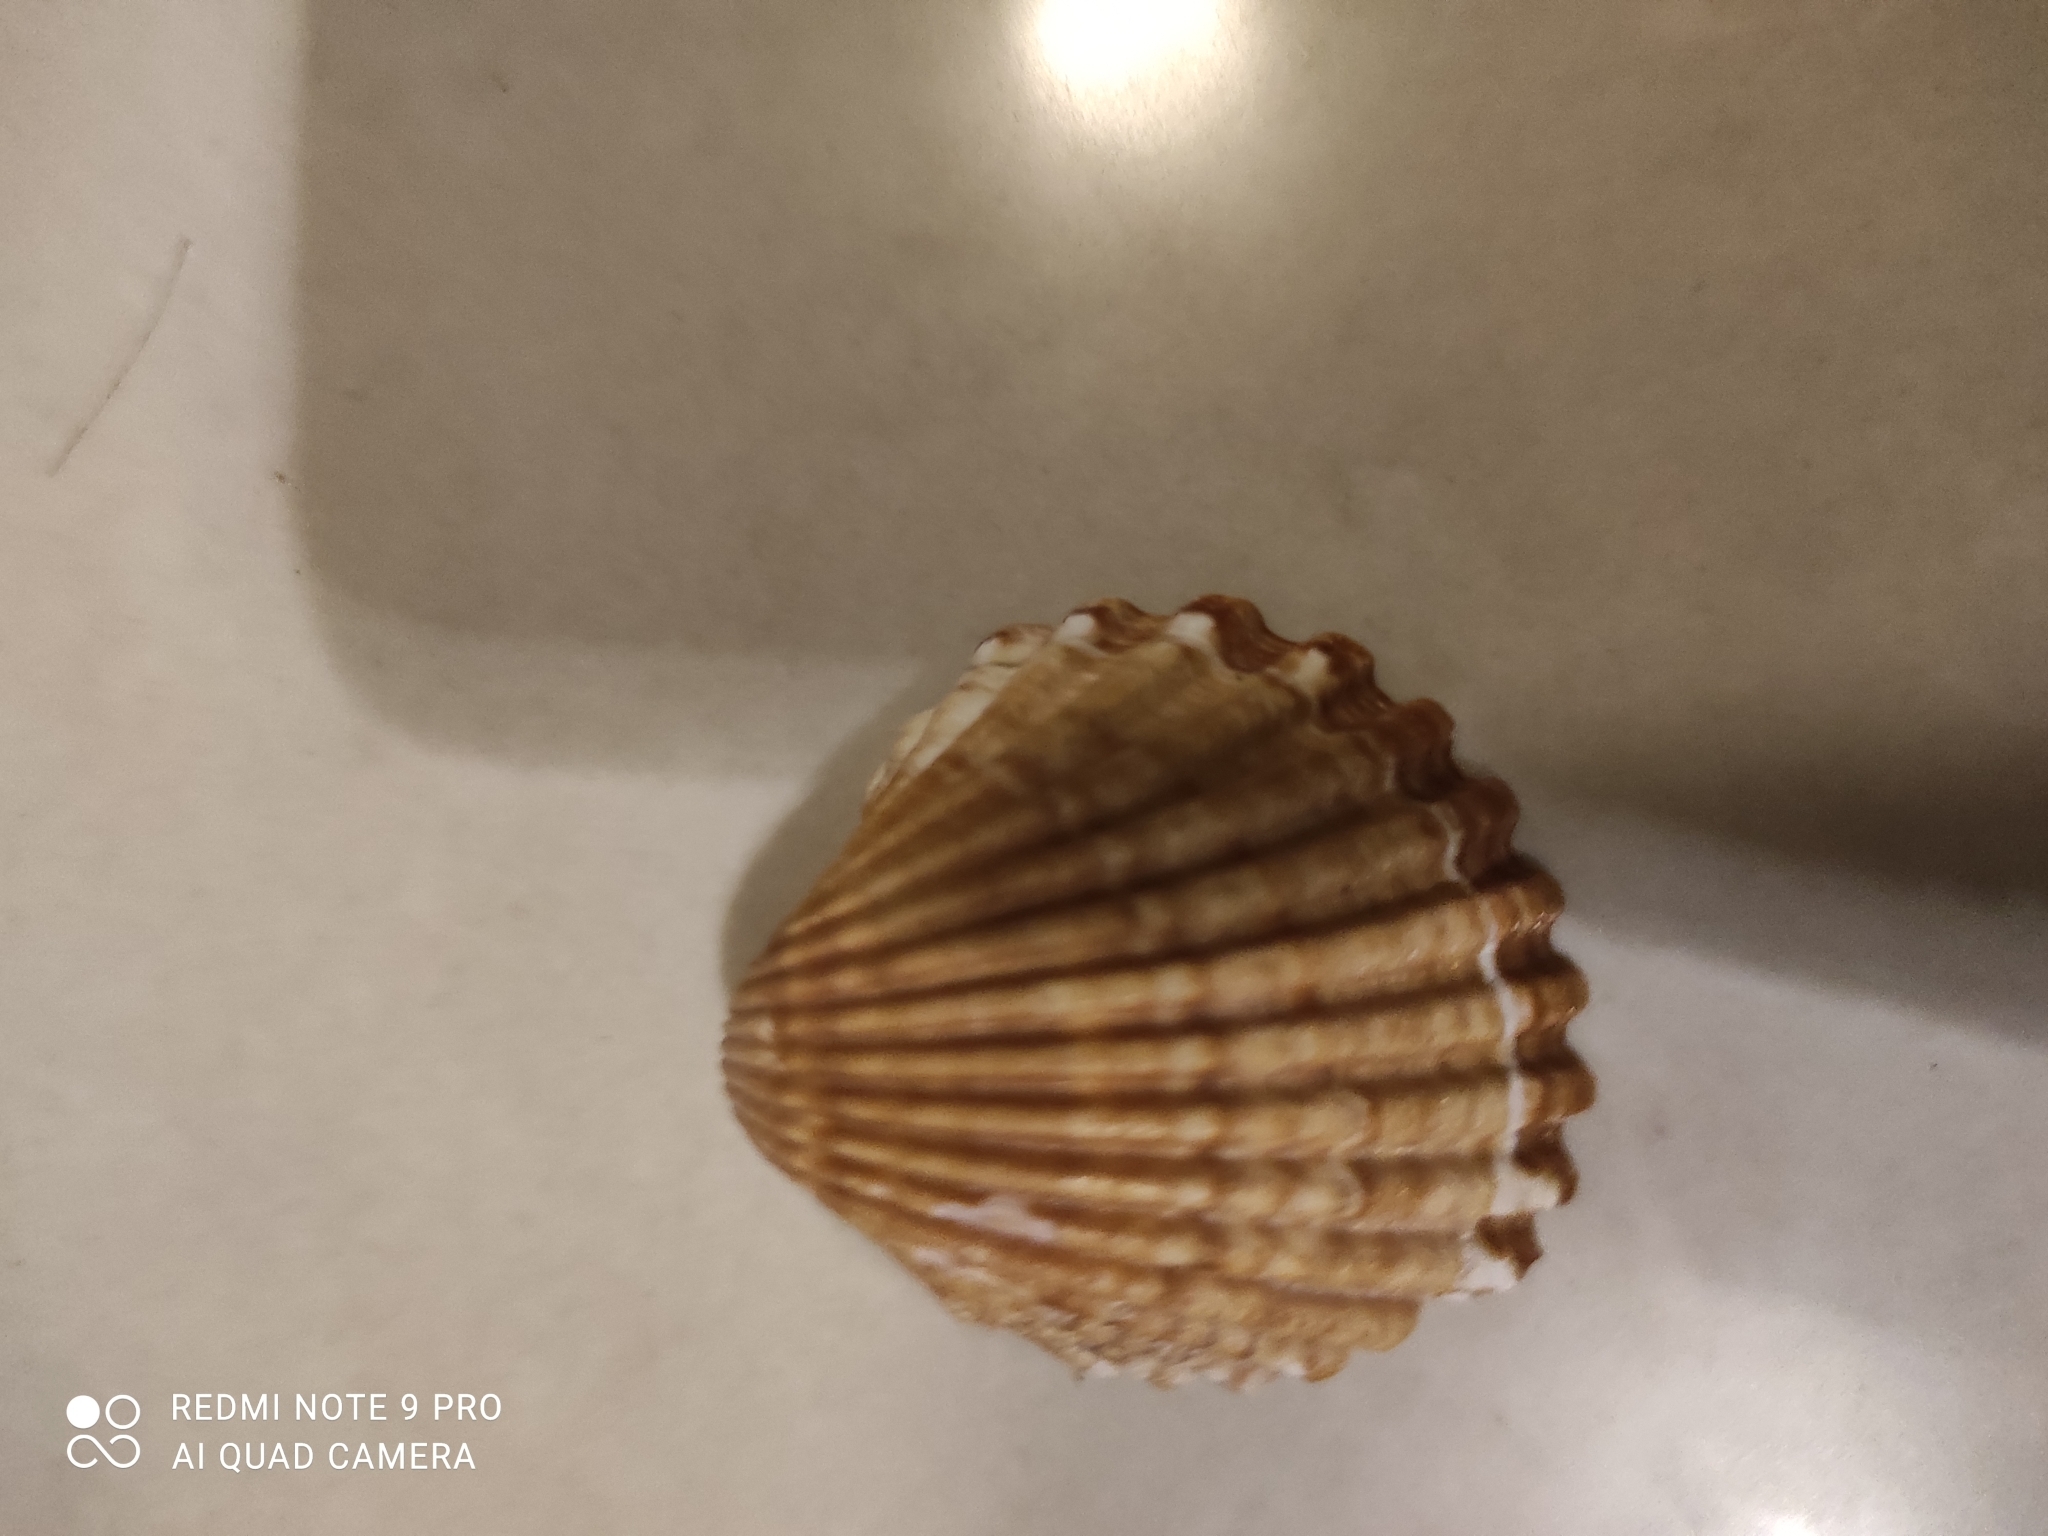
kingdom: Animalia
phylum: Mollusca
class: Bivalvia
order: Cardiida
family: Cardiidae
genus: Acanthocardia
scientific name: Acanthocardia tuberculata
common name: Rough cockle
